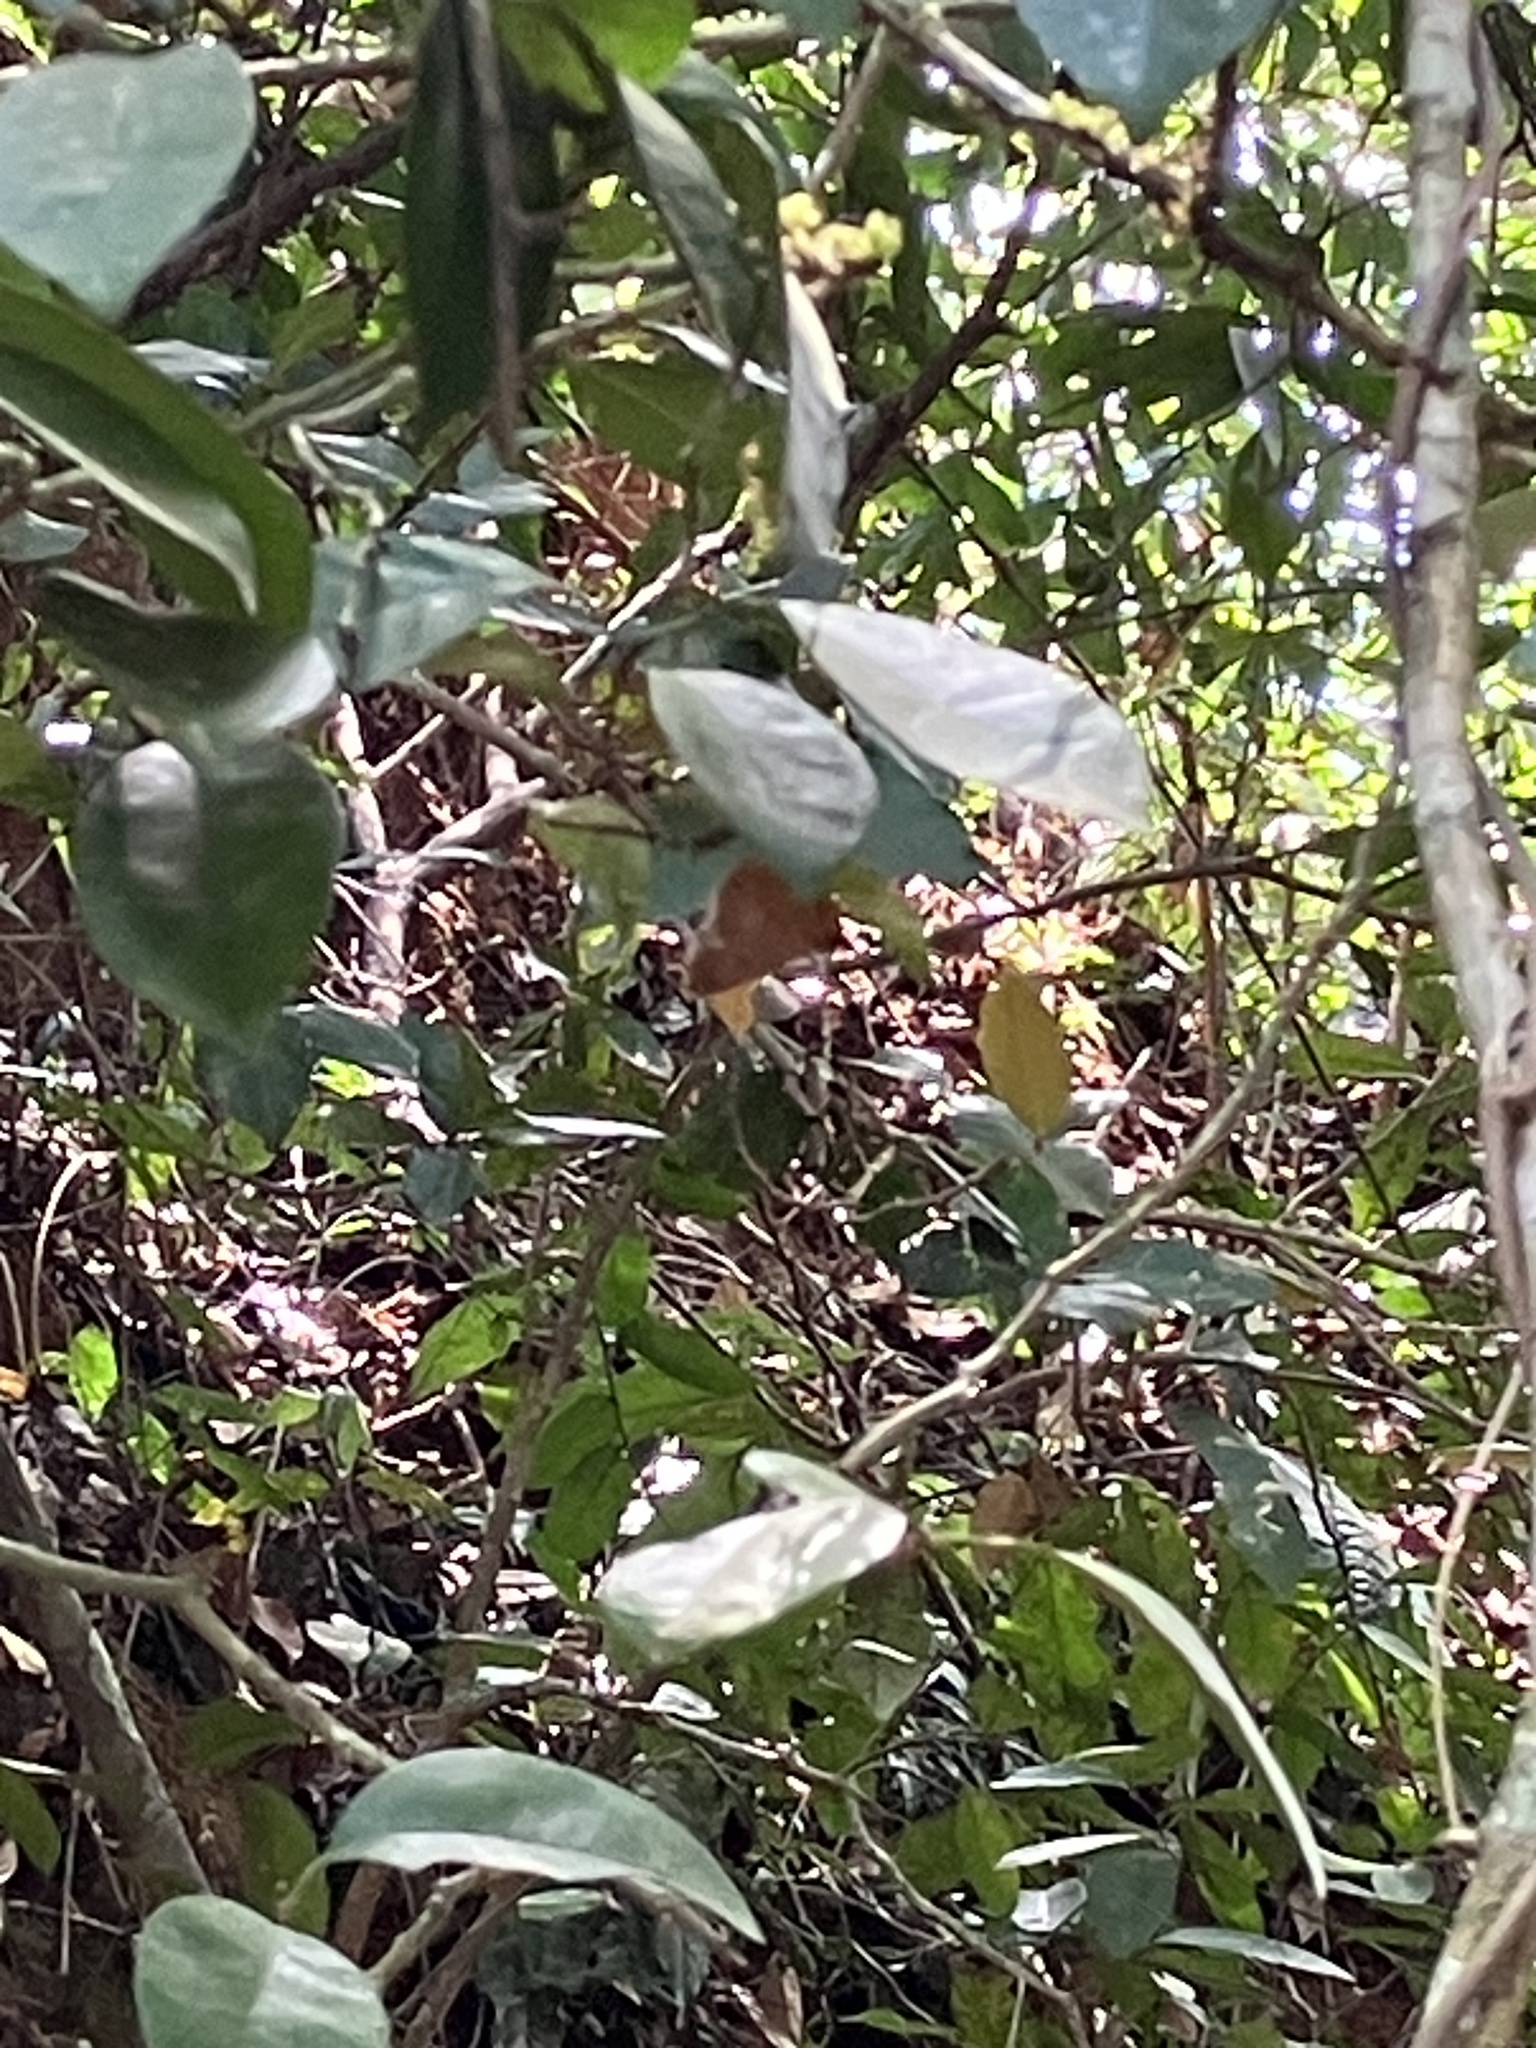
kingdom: Animalia
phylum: Arthropoda
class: Insecta
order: Lepidoptera
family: Hesperiidae
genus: Bibasis
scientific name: Bibasis jaina
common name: Common orange awlet
